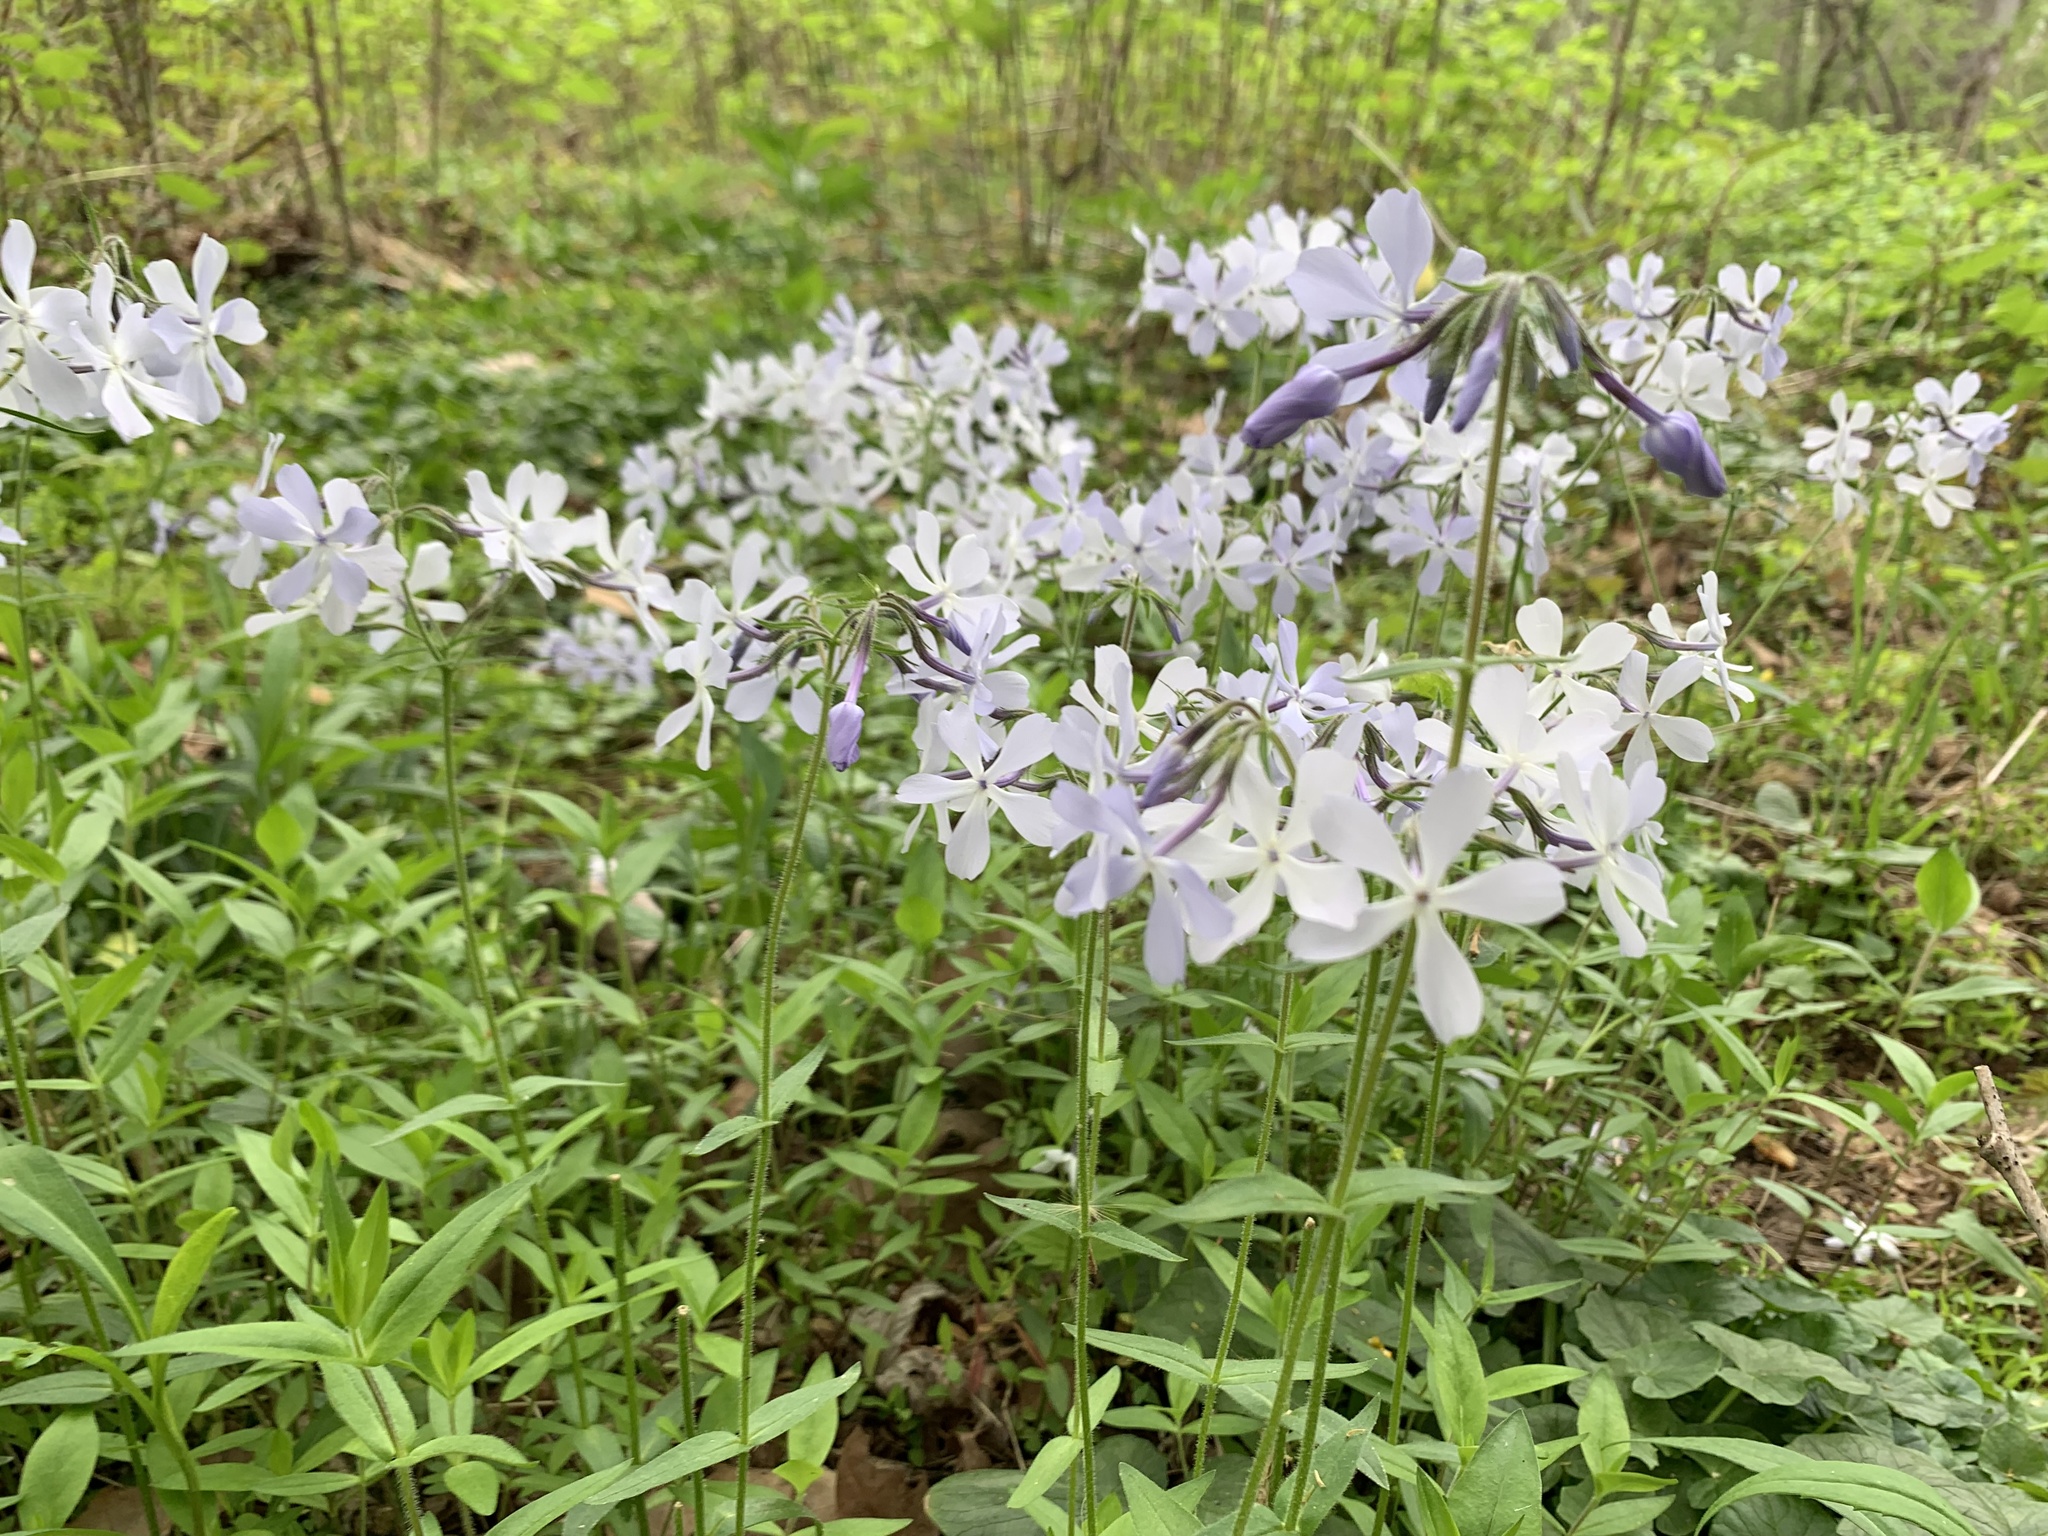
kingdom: Plantae
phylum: Tracheophyta
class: Magnoliopsida
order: Ericales
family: Polemoniaceae
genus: Phlox
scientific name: Phlox divaricata
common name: Blue phlox
